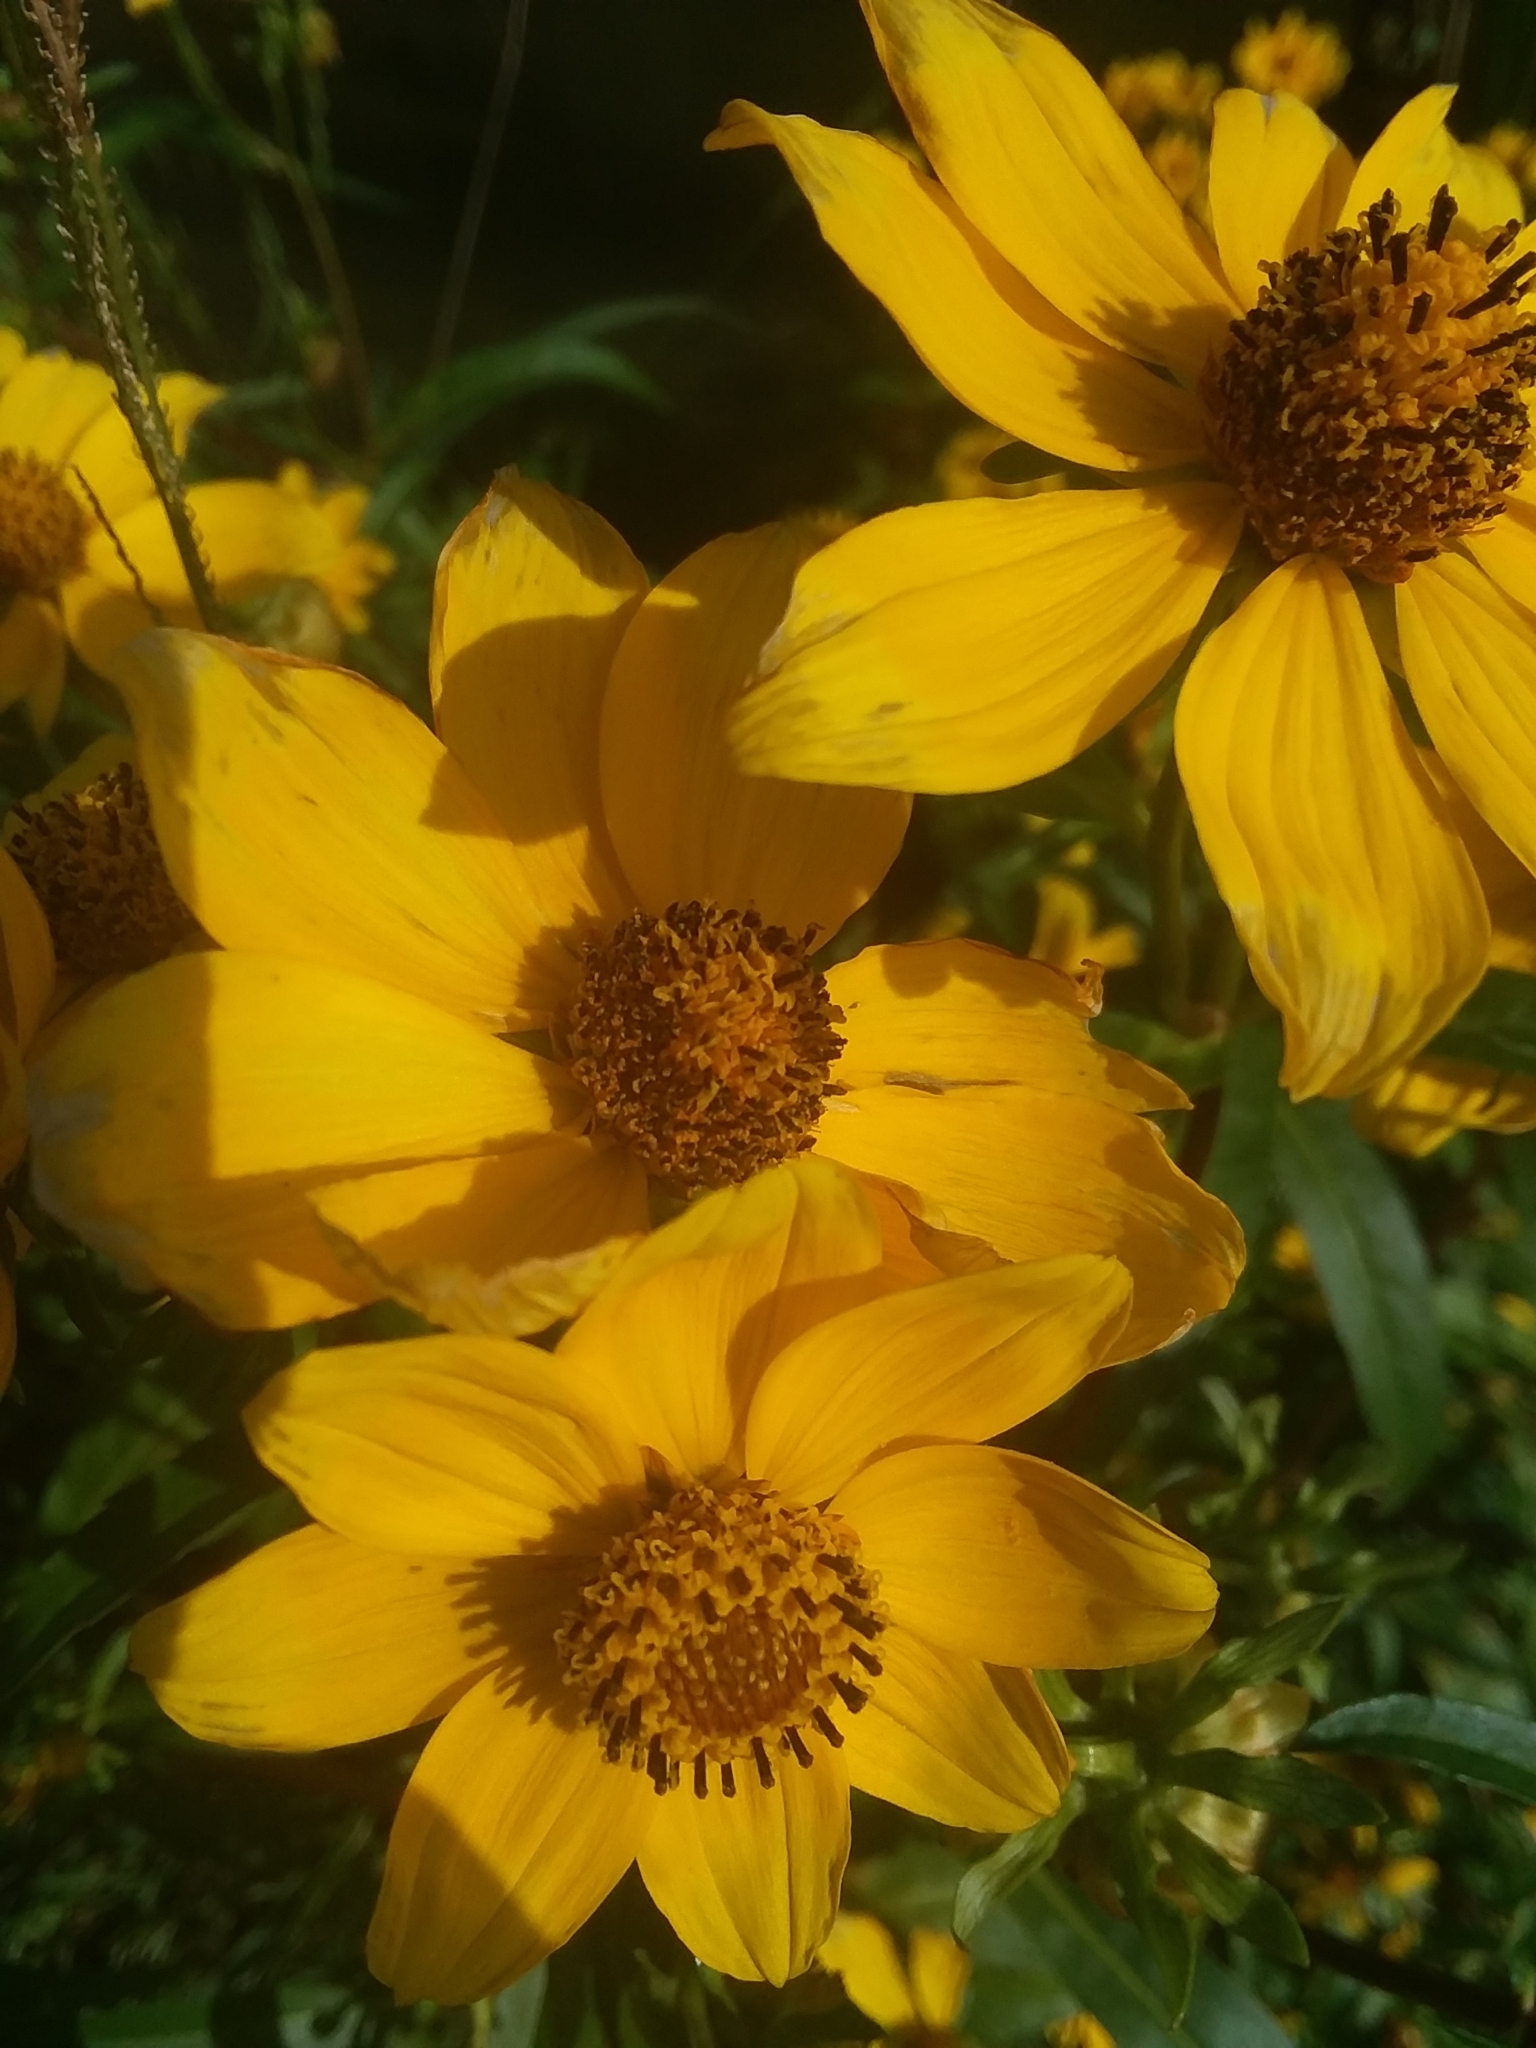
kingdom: Plantae
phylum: Tracheophyta
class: Magnoliopsida
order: Asterales
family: Asteraceae
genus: Bidens
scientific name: Bidens laevis
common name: Larger bur-marigold
